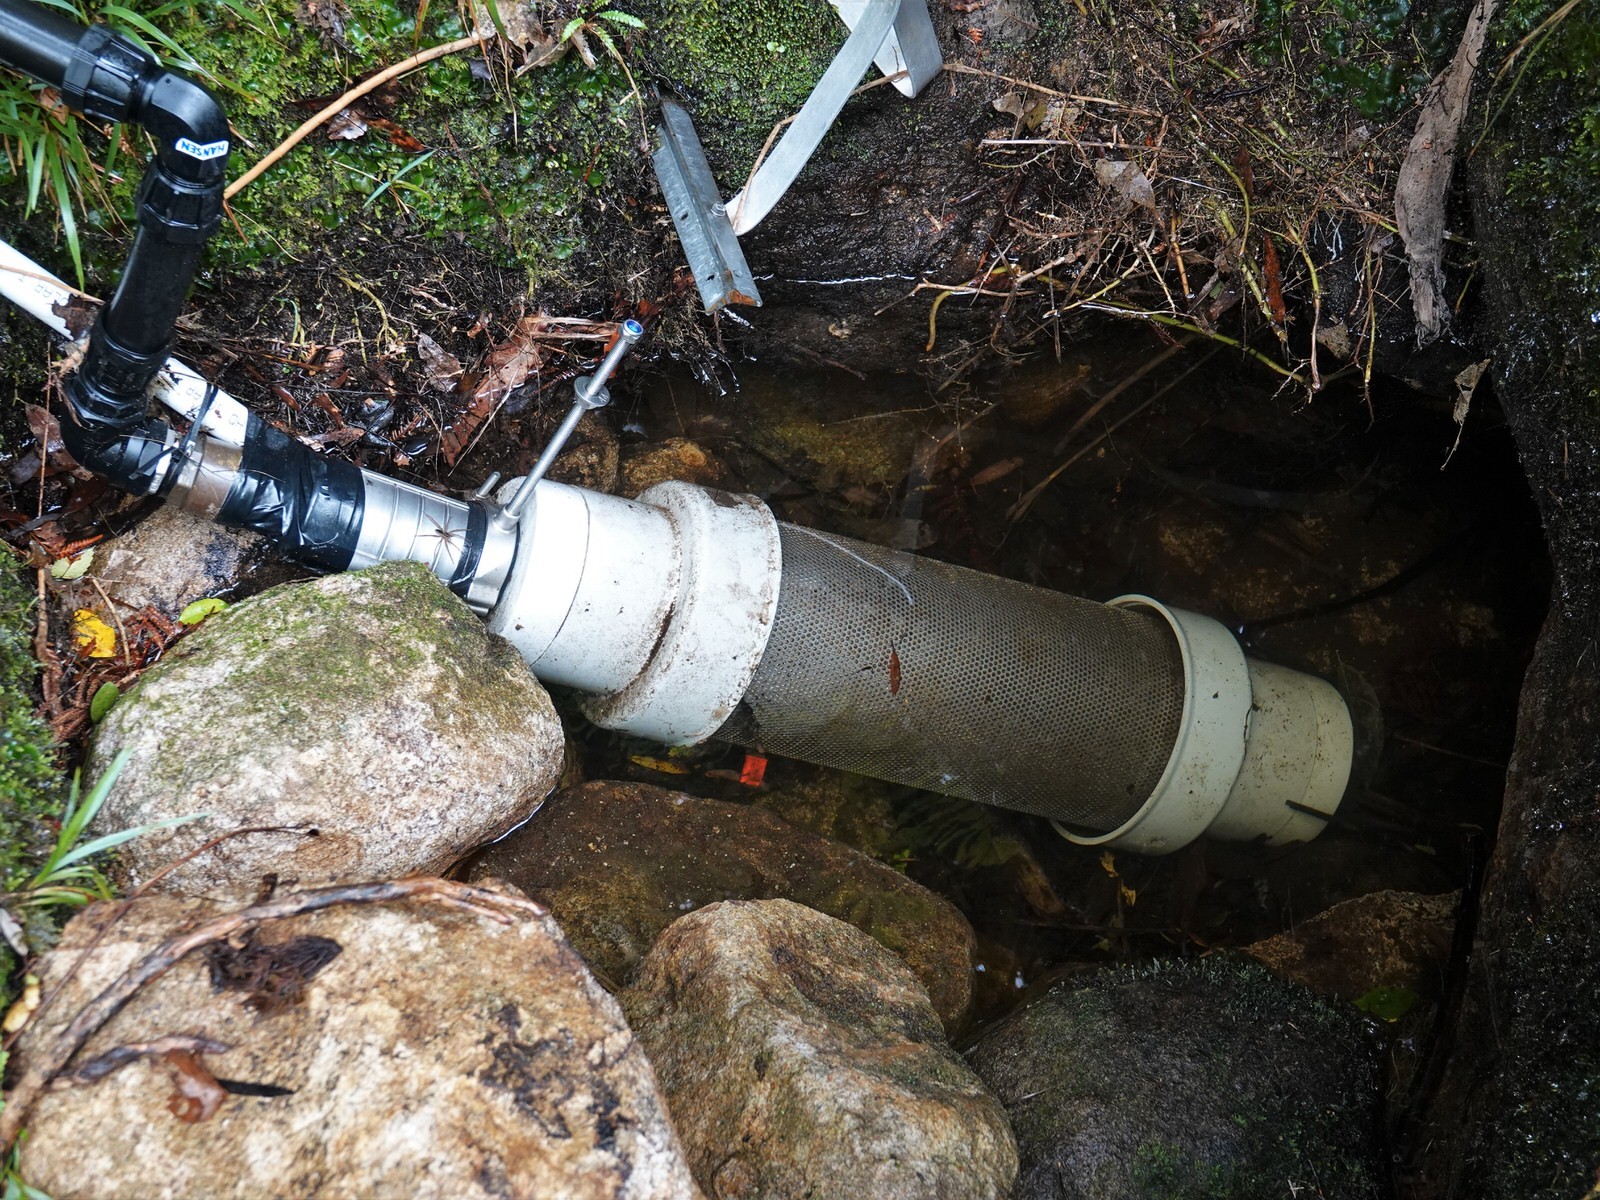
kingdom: Animalia
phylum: Arthropoda
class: Arachnida
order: Araneae
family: Pisauridae
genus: Dolomedes
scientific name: Dolomedes dondalei
